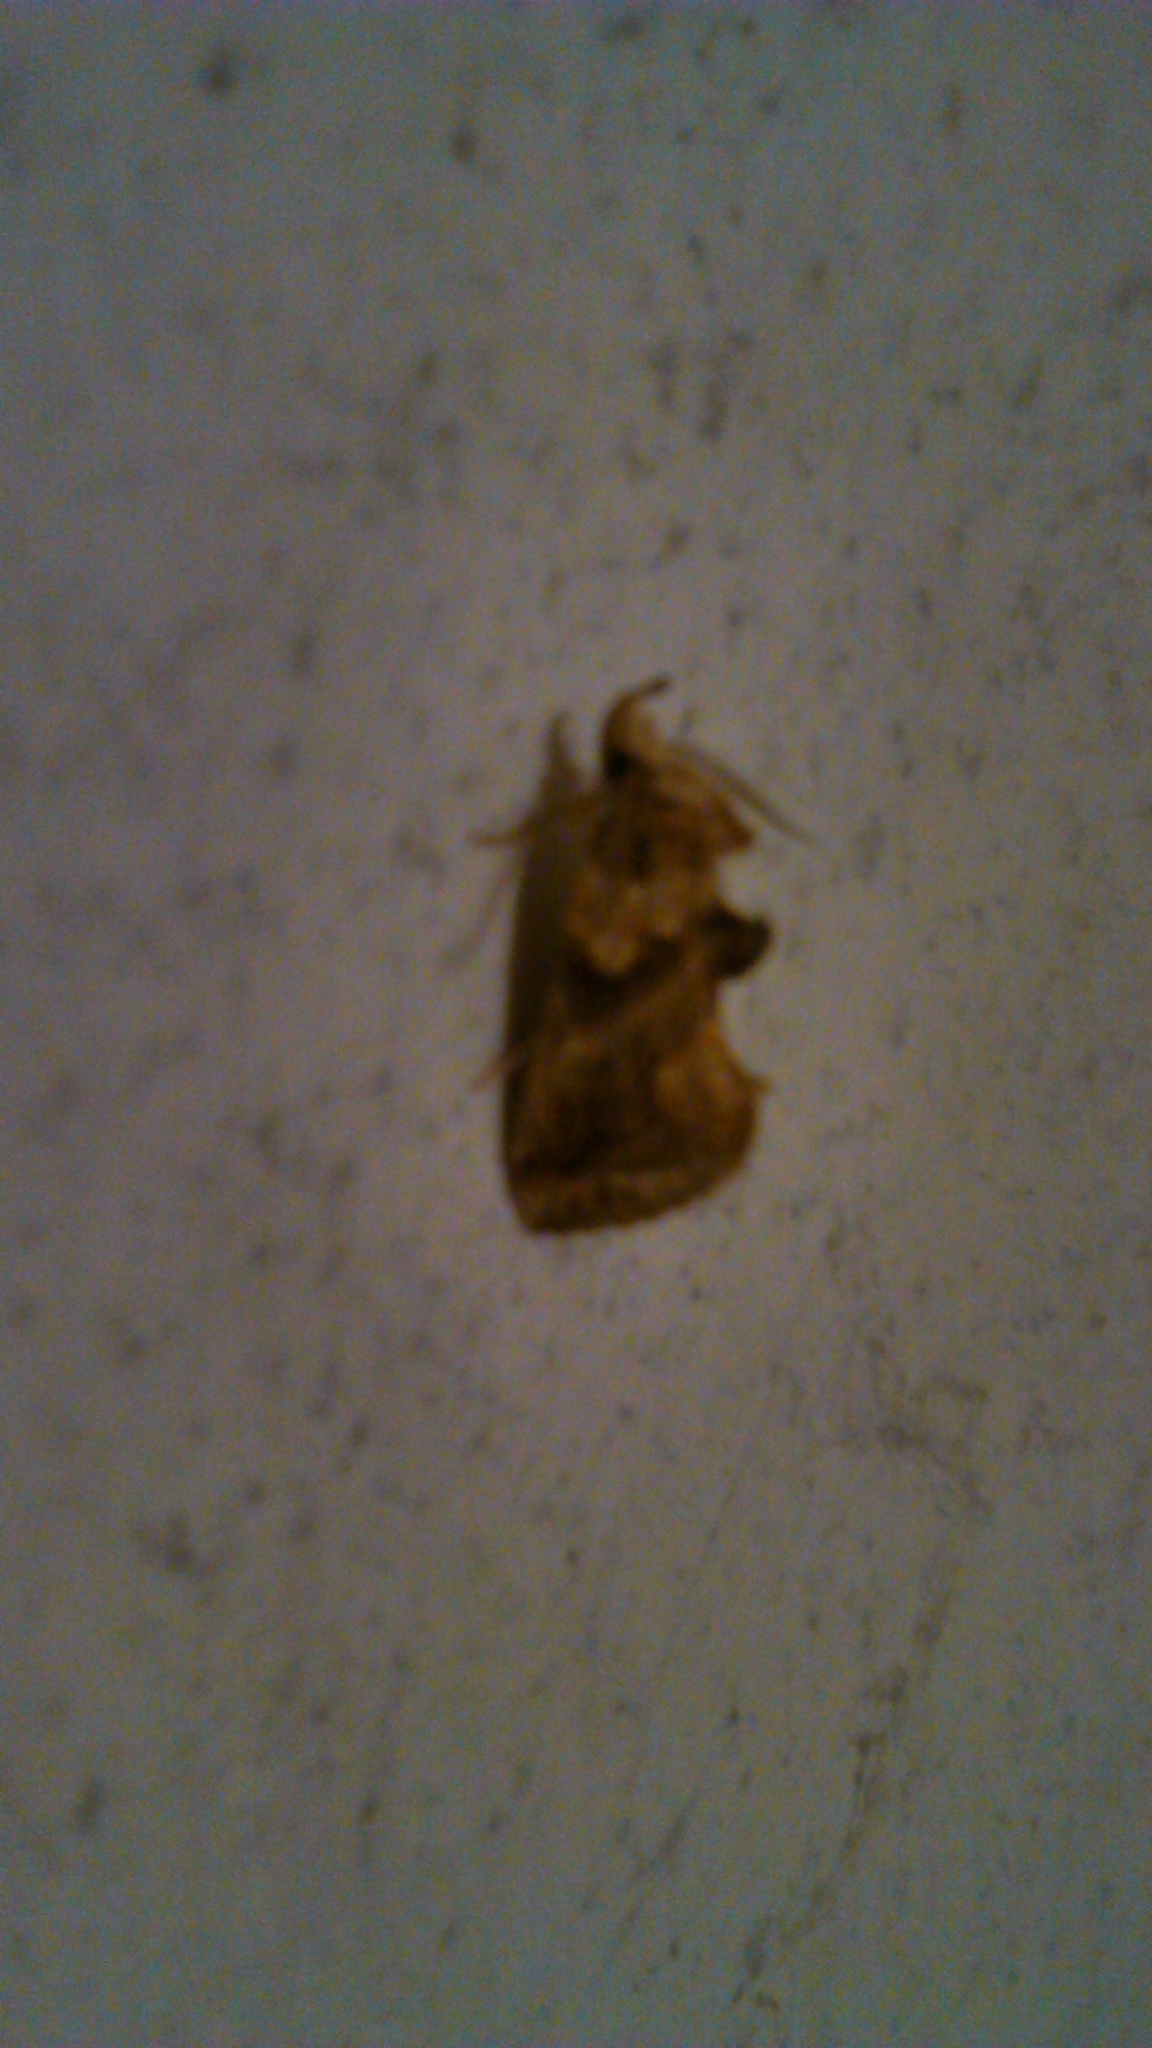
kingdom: Animalia
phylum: Arthropoda
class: Insecta
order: Lepidoptera
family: Erebidae
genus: Plusiodonta
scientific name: Plusiodonta compressipalpis
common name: Moonseed moth
